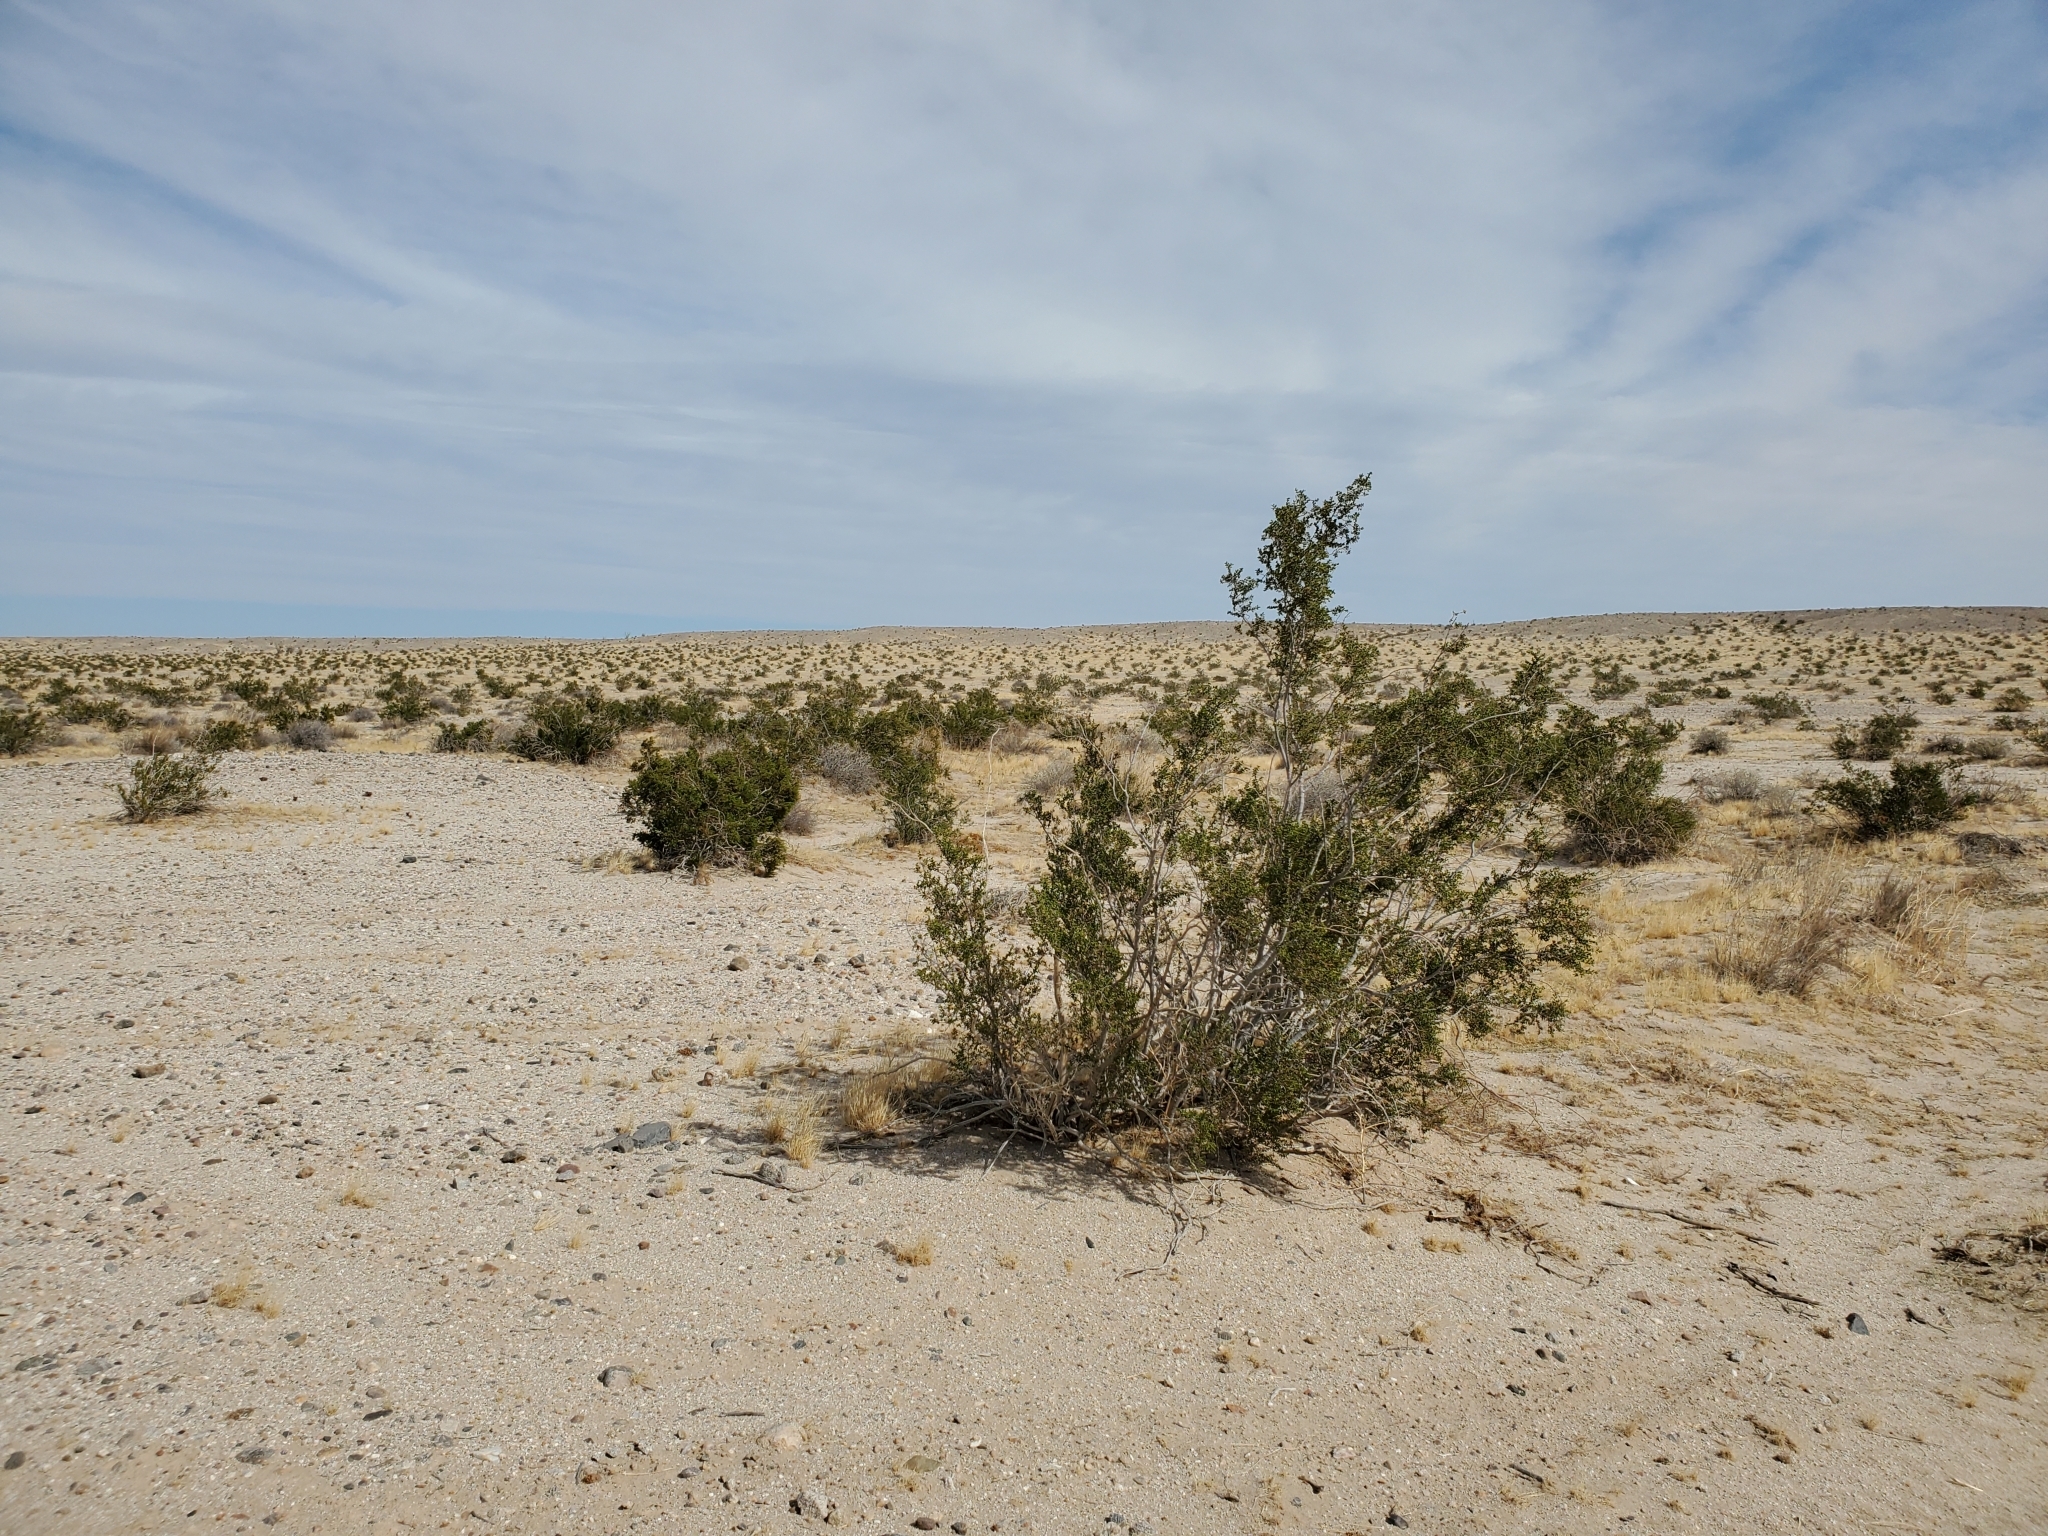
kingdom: Plantae
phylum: Tracheophyta
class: Magnoliopsida
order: Zygophyllales
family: Zygophyllaceae
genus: Larrea
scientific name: Larrea tridentata
